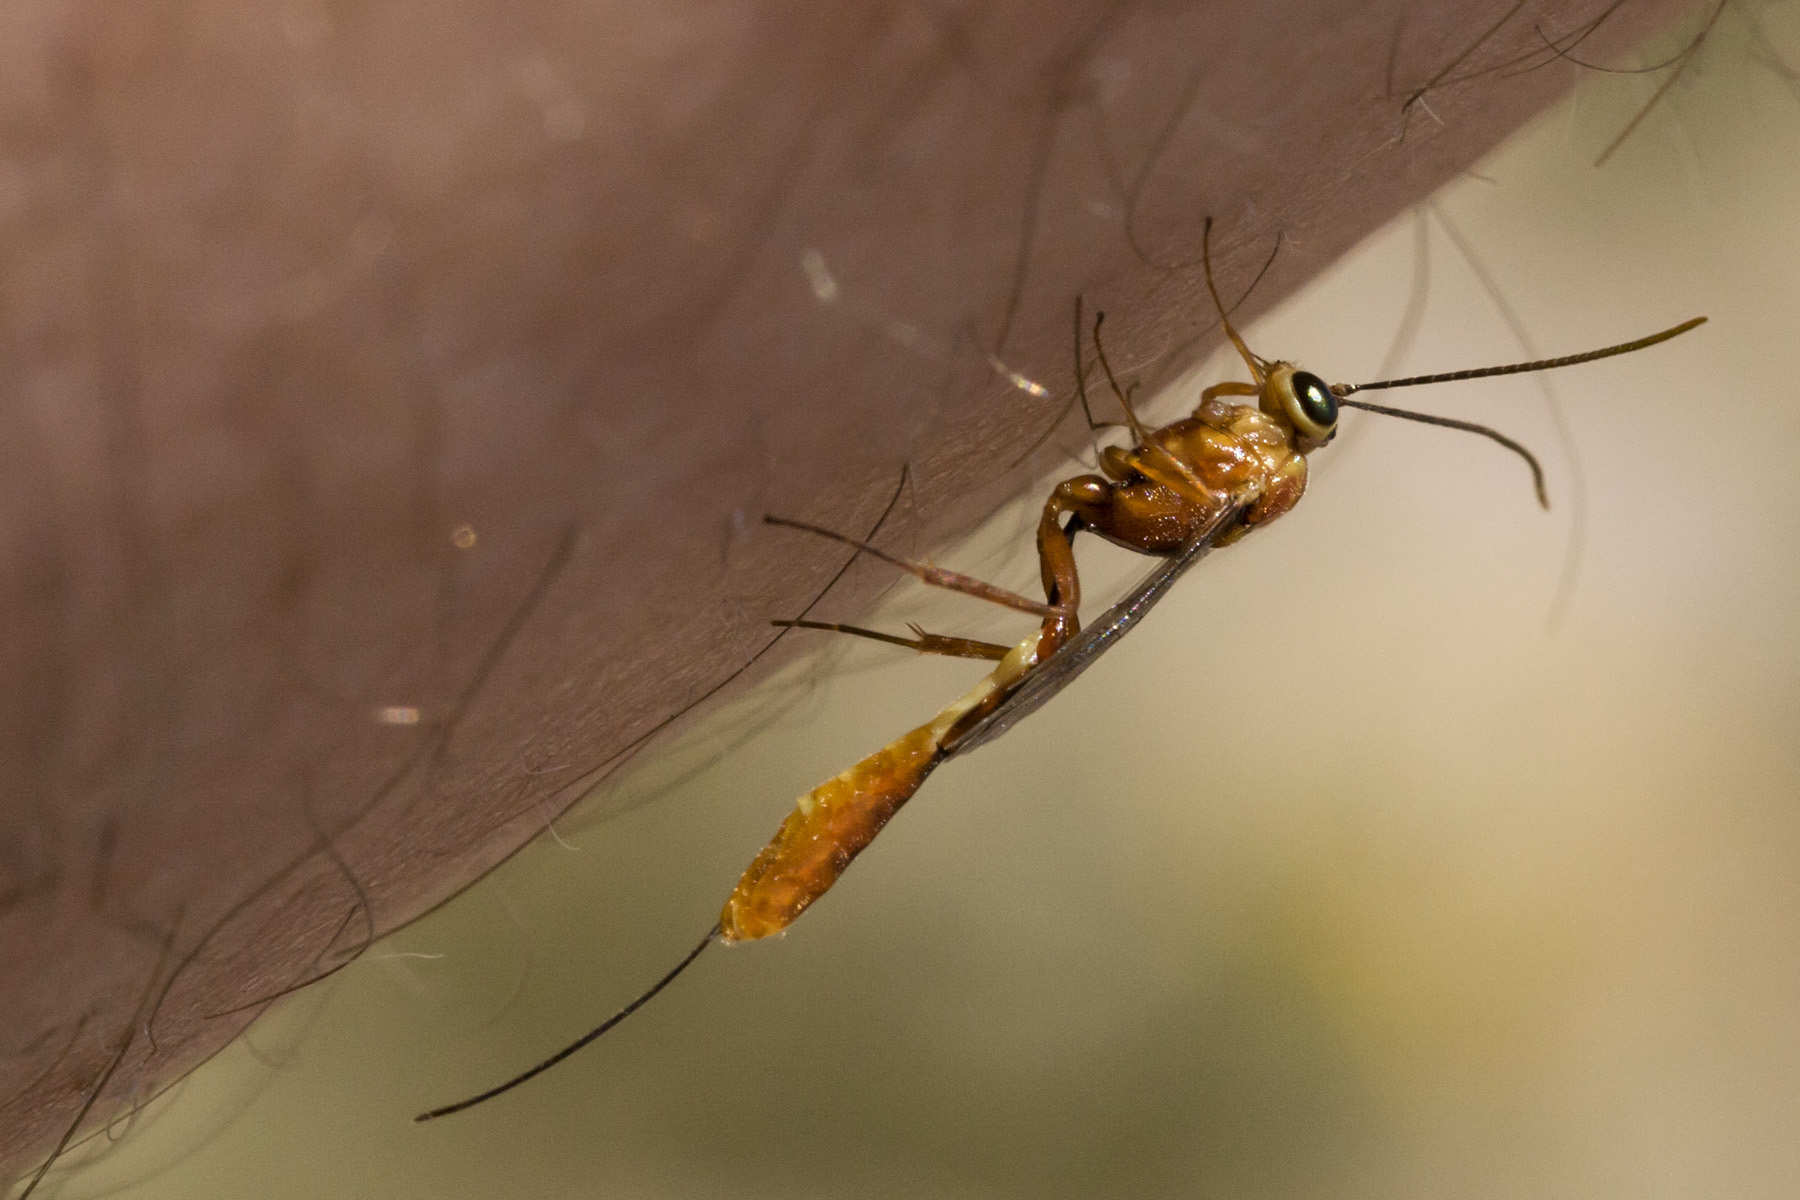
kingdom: Animalia
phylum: Arthropoda
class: Insecta
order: Hymenoptera
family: Ichneumonidae
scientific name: Ichneumonidae
